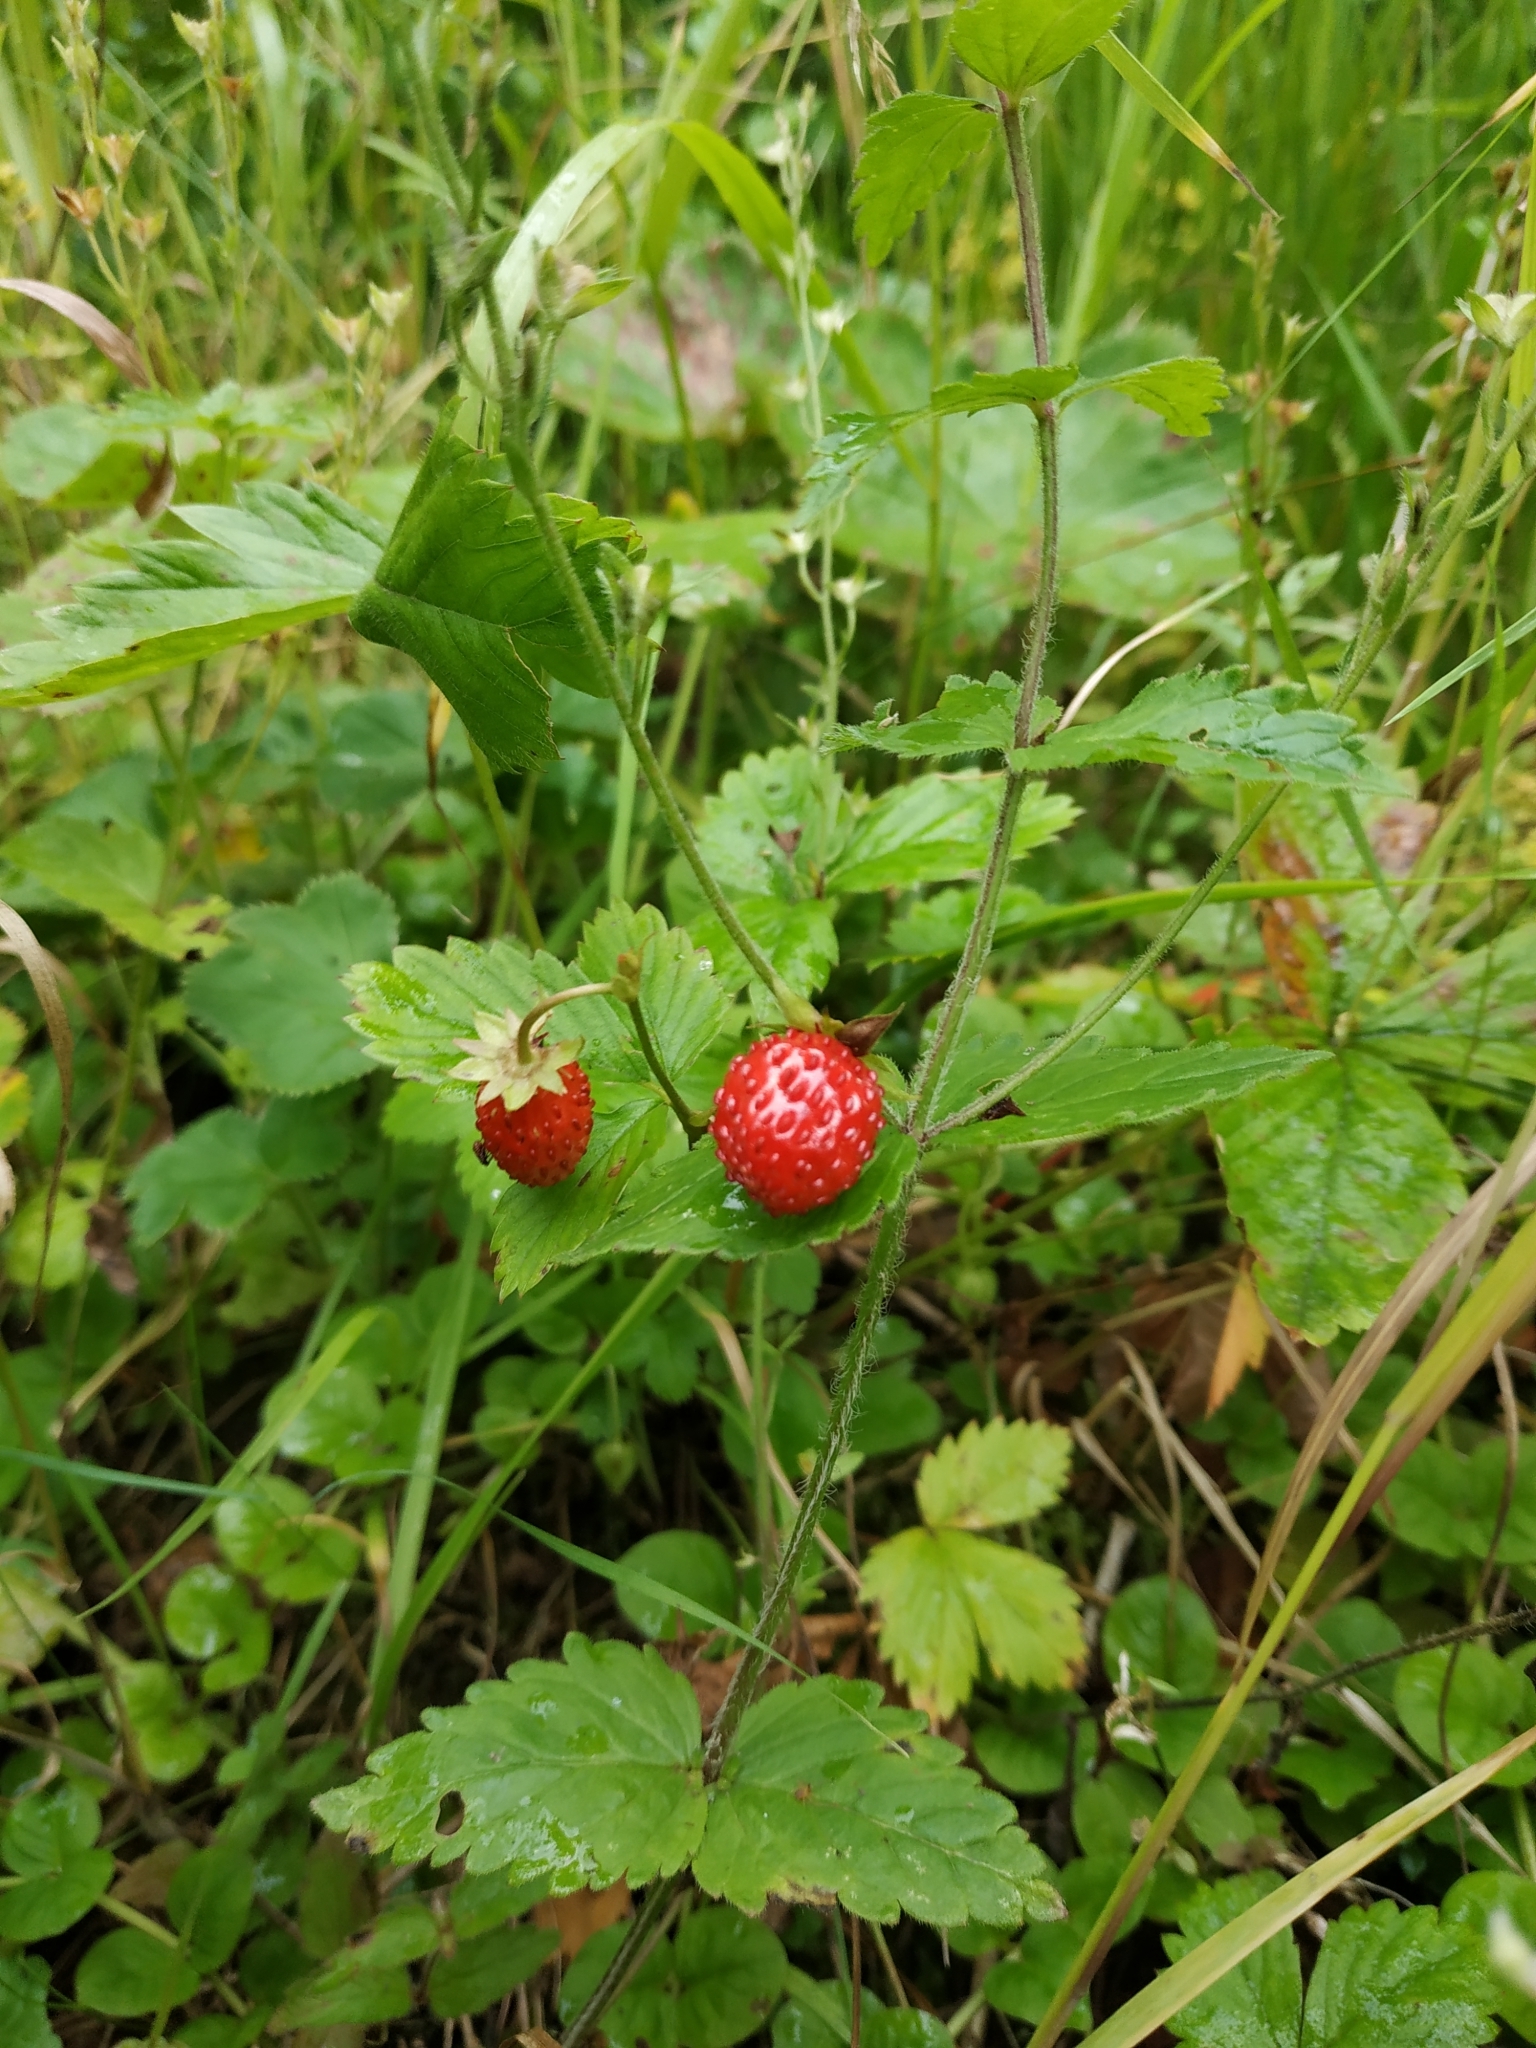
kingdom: Plantae
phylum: Tracheophyta
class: Magnoliopsida
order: Rosales
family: Rosaceae
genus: Fragaria
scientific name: Fragaria vesca
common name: Wild strawberry
